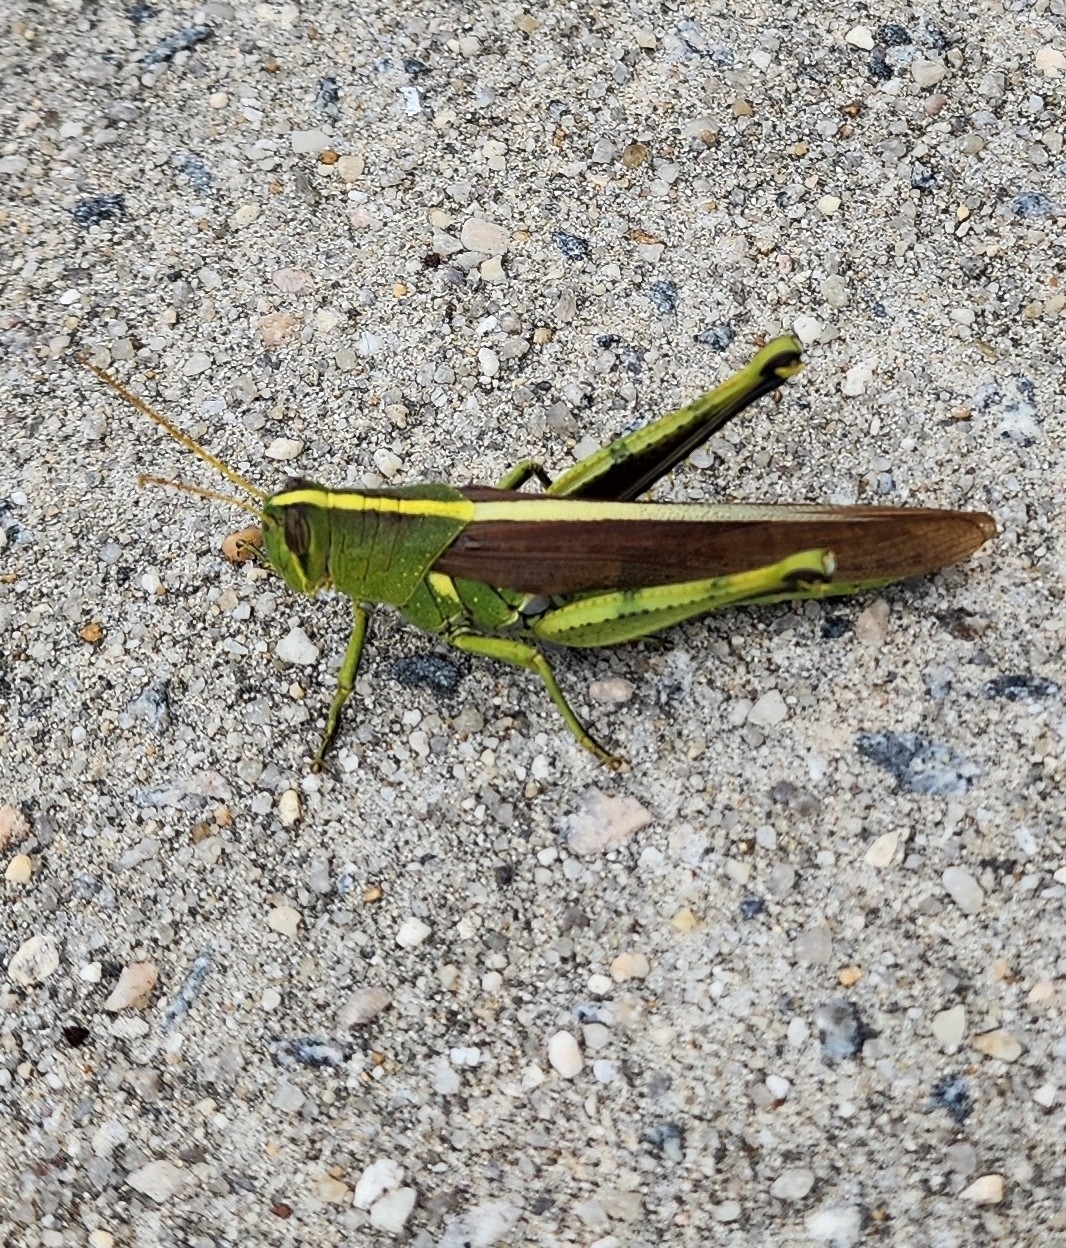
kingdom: Animalia
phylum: Arthropoda
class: Insecta
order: Orthoptera
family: Acrididae
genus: Schistocerca
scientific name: Schistocerca obscura
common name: Obscure bird grasshopper
